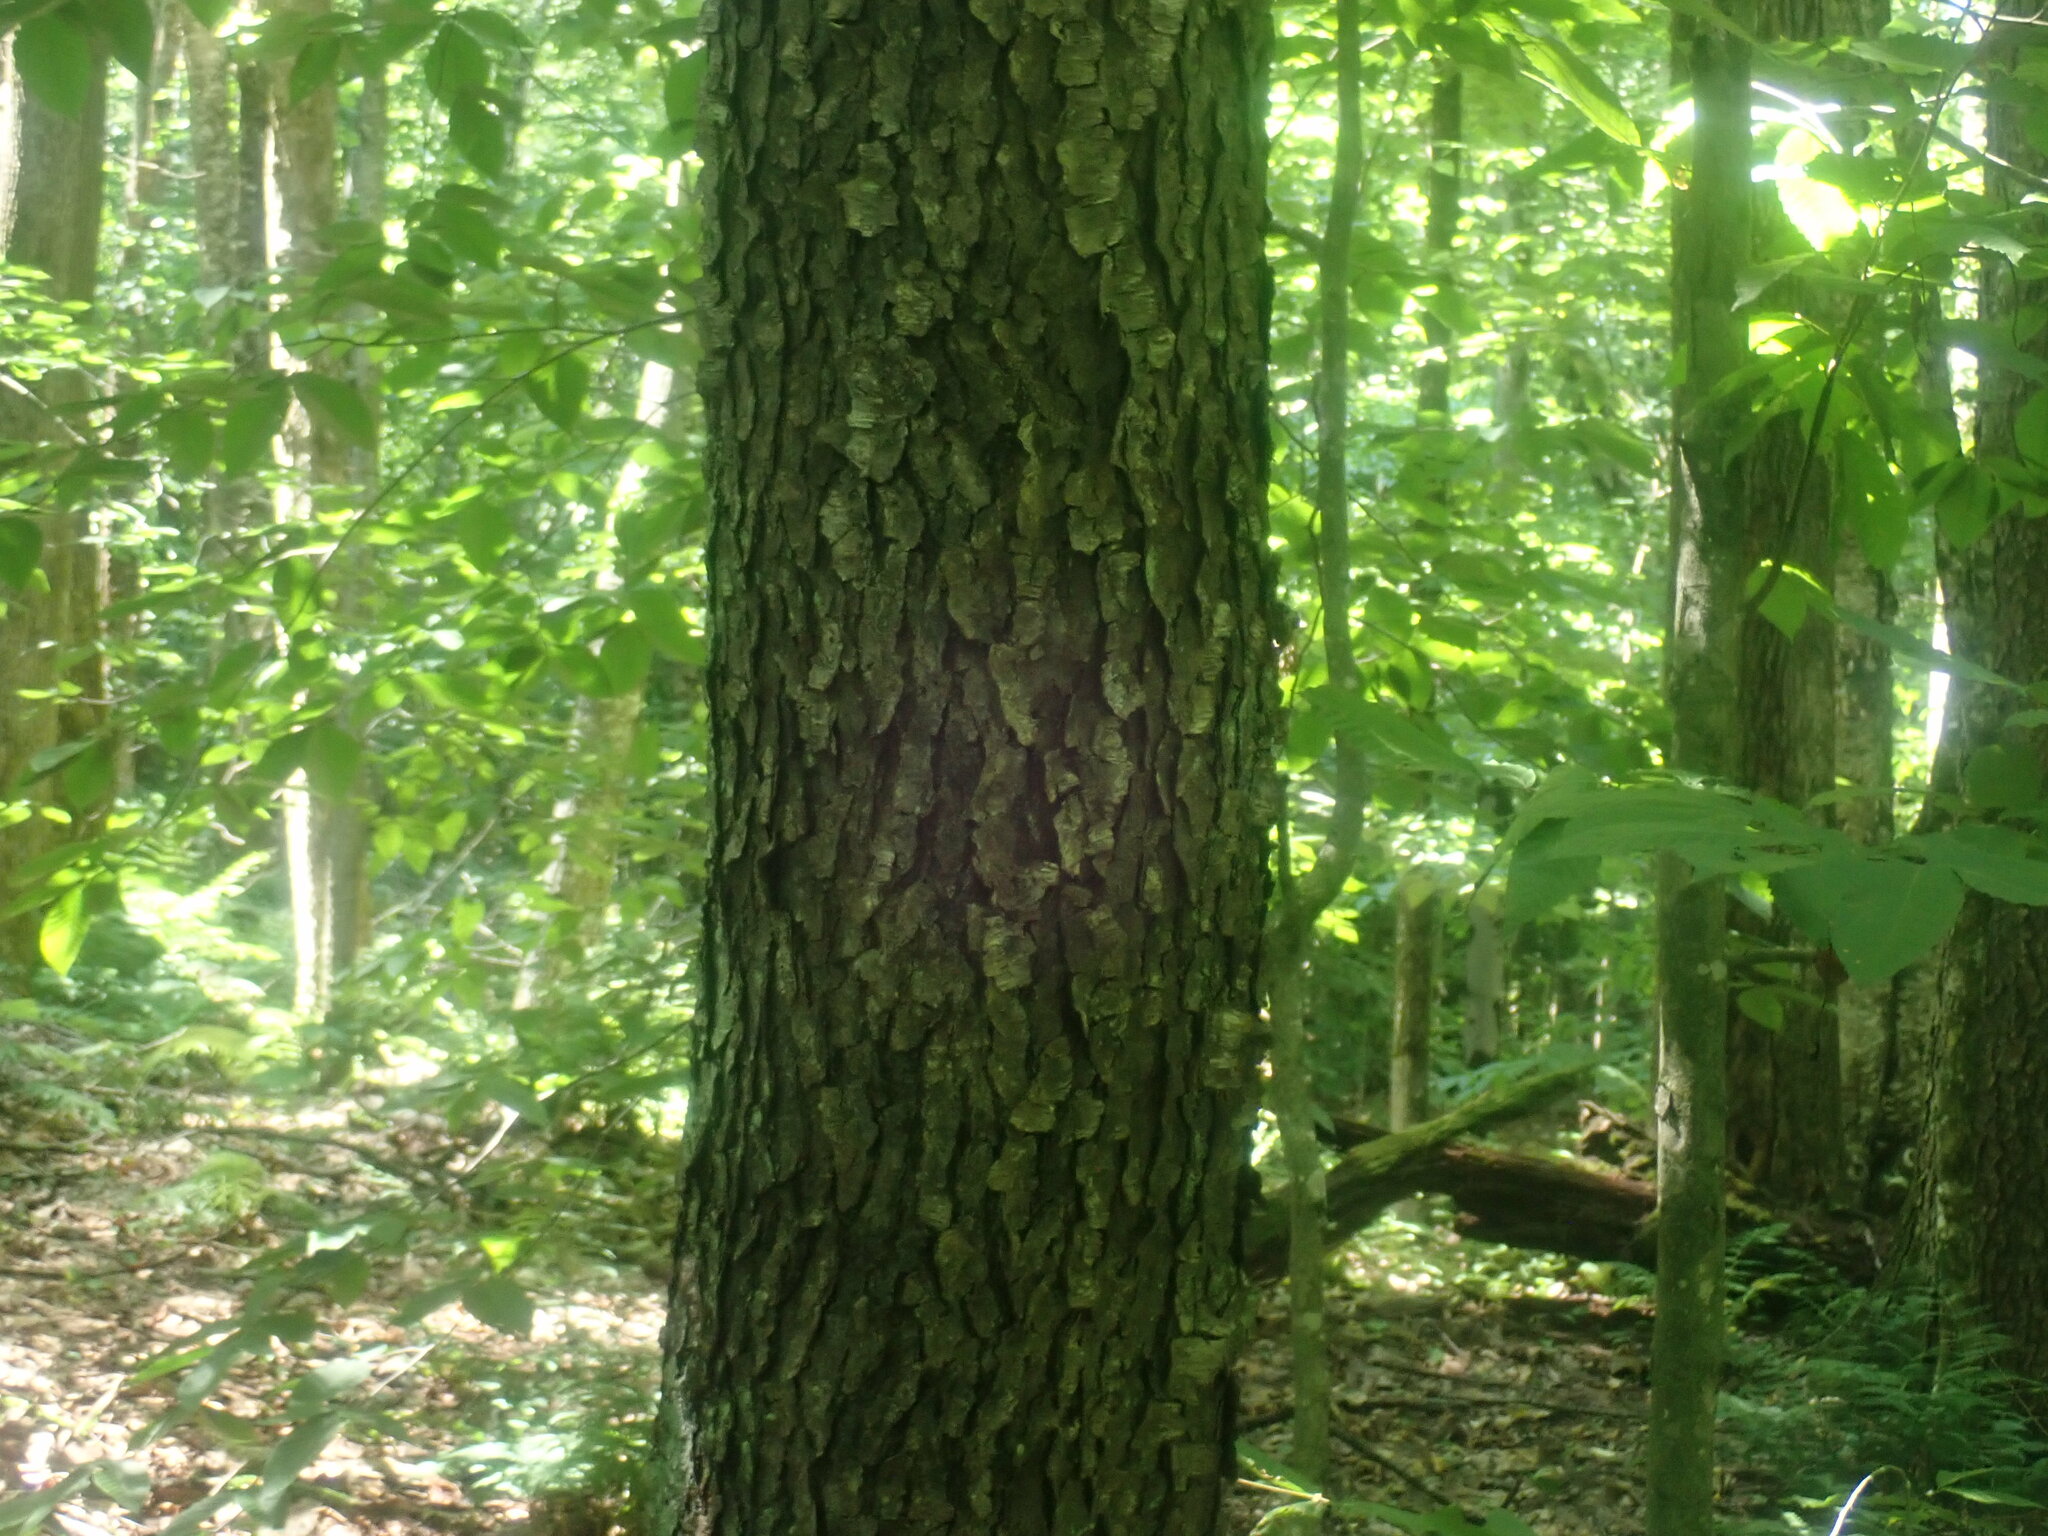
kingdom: Plantae
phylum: Tracheophyta
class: Magnoliopsida
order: Rosales
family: Rosaceae
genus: Prunus
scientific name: Prunus serotina
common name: Black cherry
